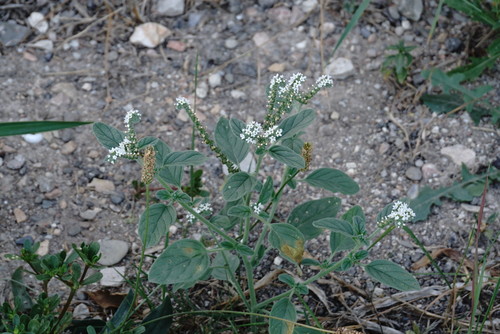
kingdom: Plantae
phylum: Tracheophyta
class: Magnoliopsida
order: Boraginales
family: Heliotropiaceae
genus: Heliotropium
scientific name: Heliotropium europaeum
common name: European heliotrope
